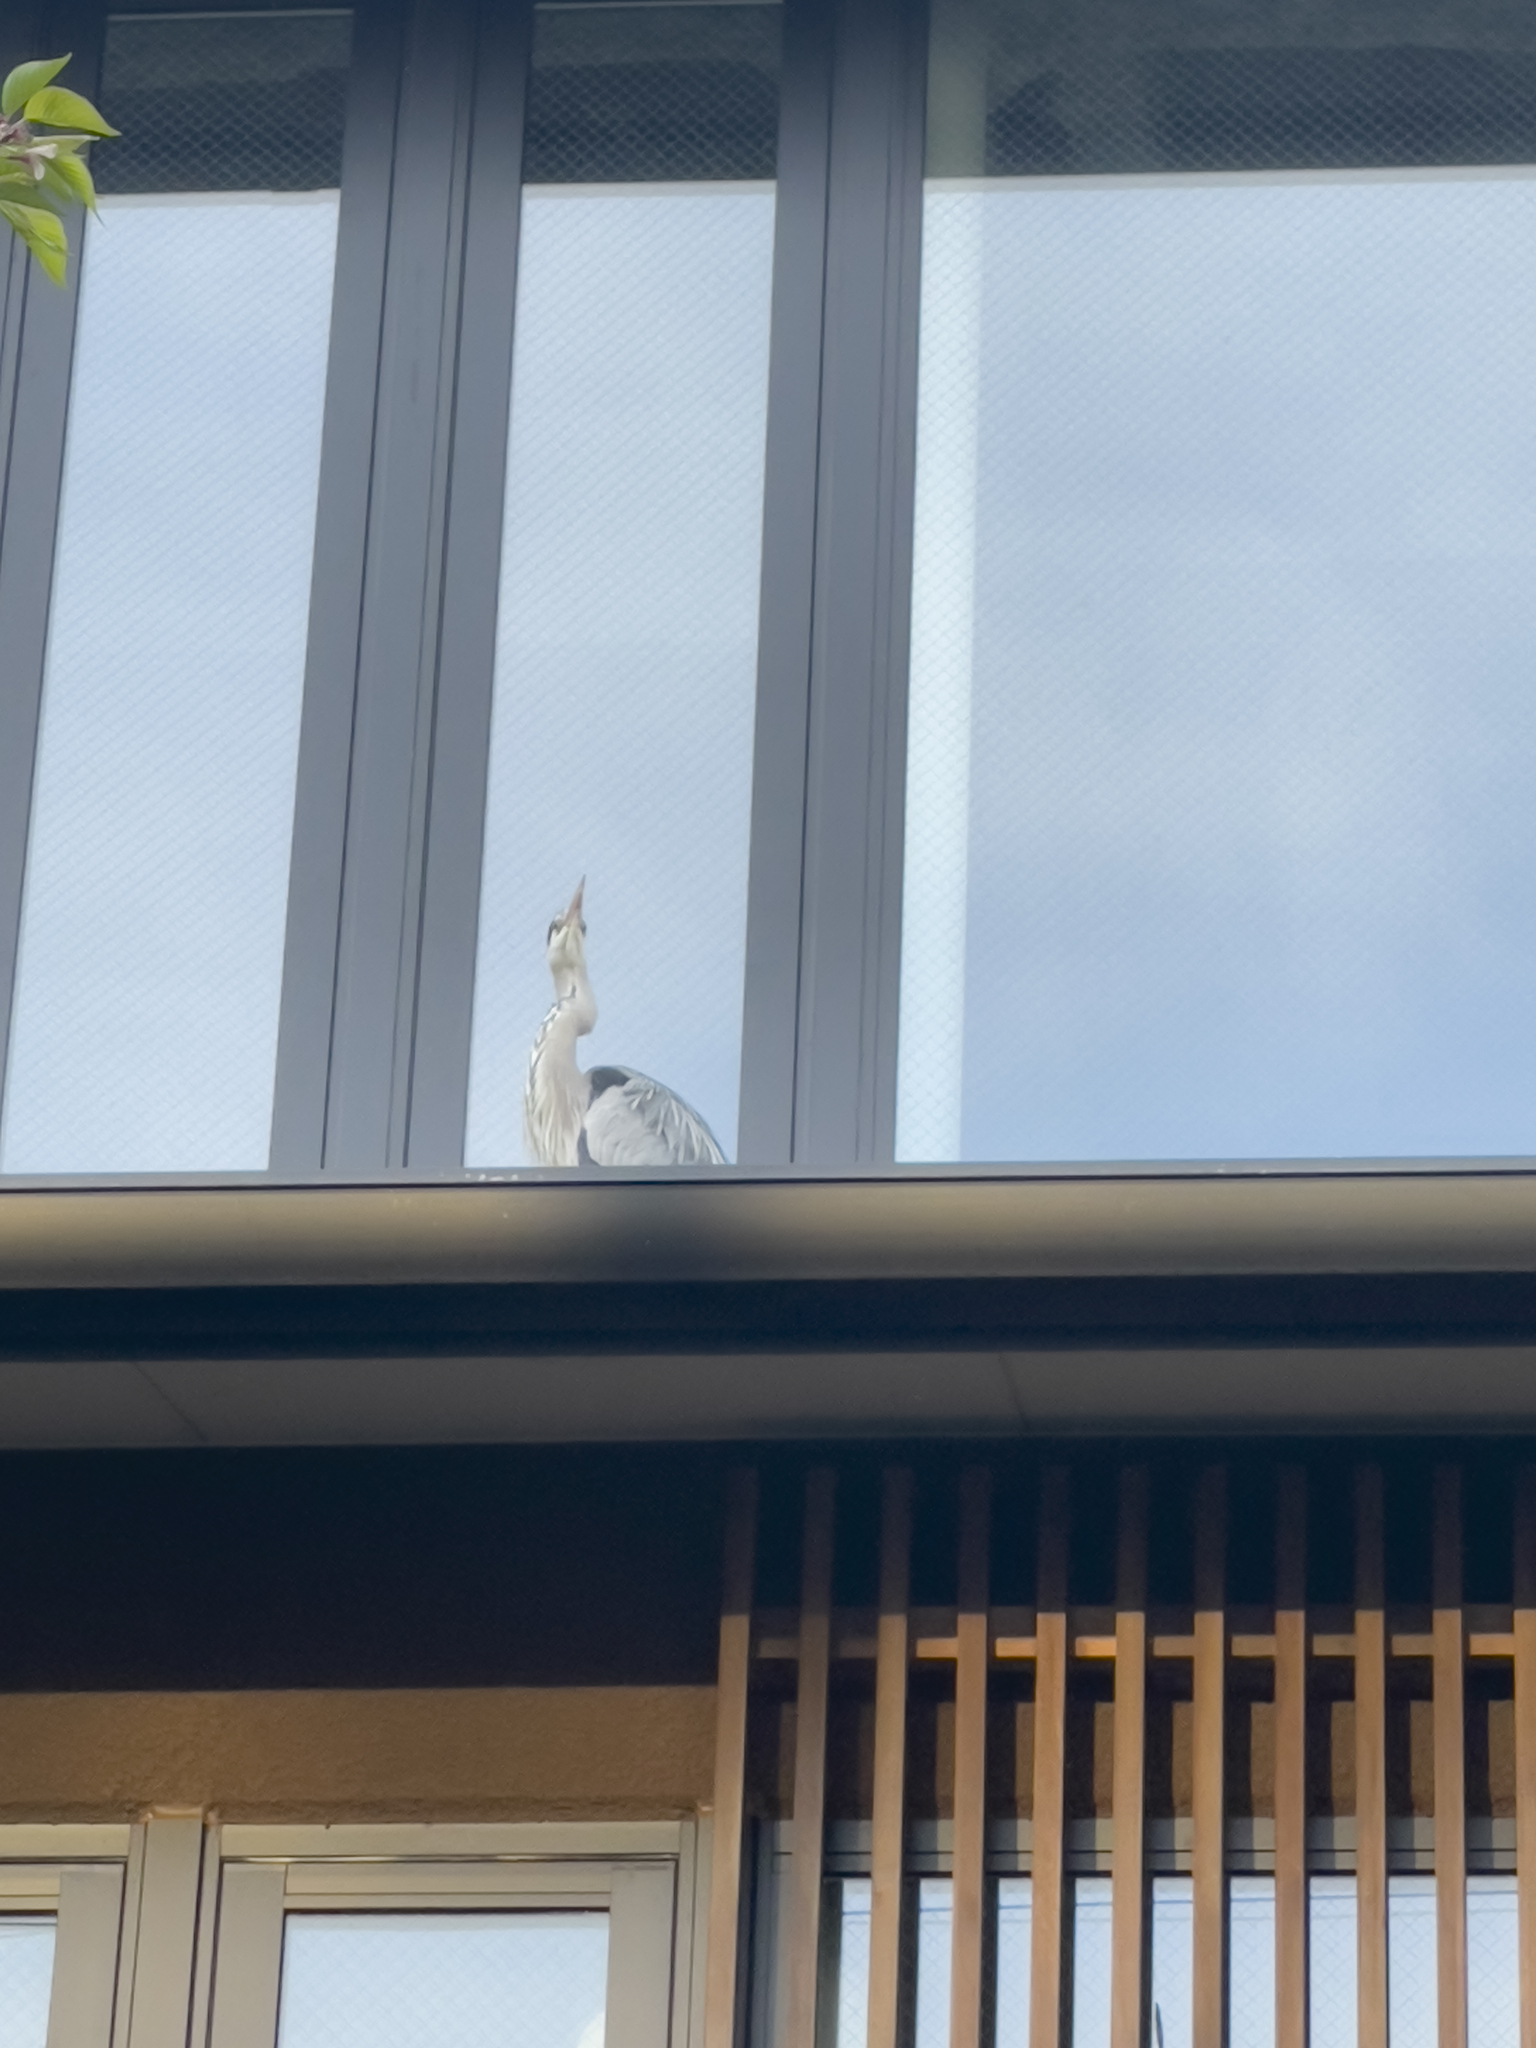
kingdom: Animalia
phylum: Chordata
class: Aves
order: Pelecaniformes
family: Ardeidae
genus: Ardea
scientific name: Ardea cinerea
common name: Grey heron
